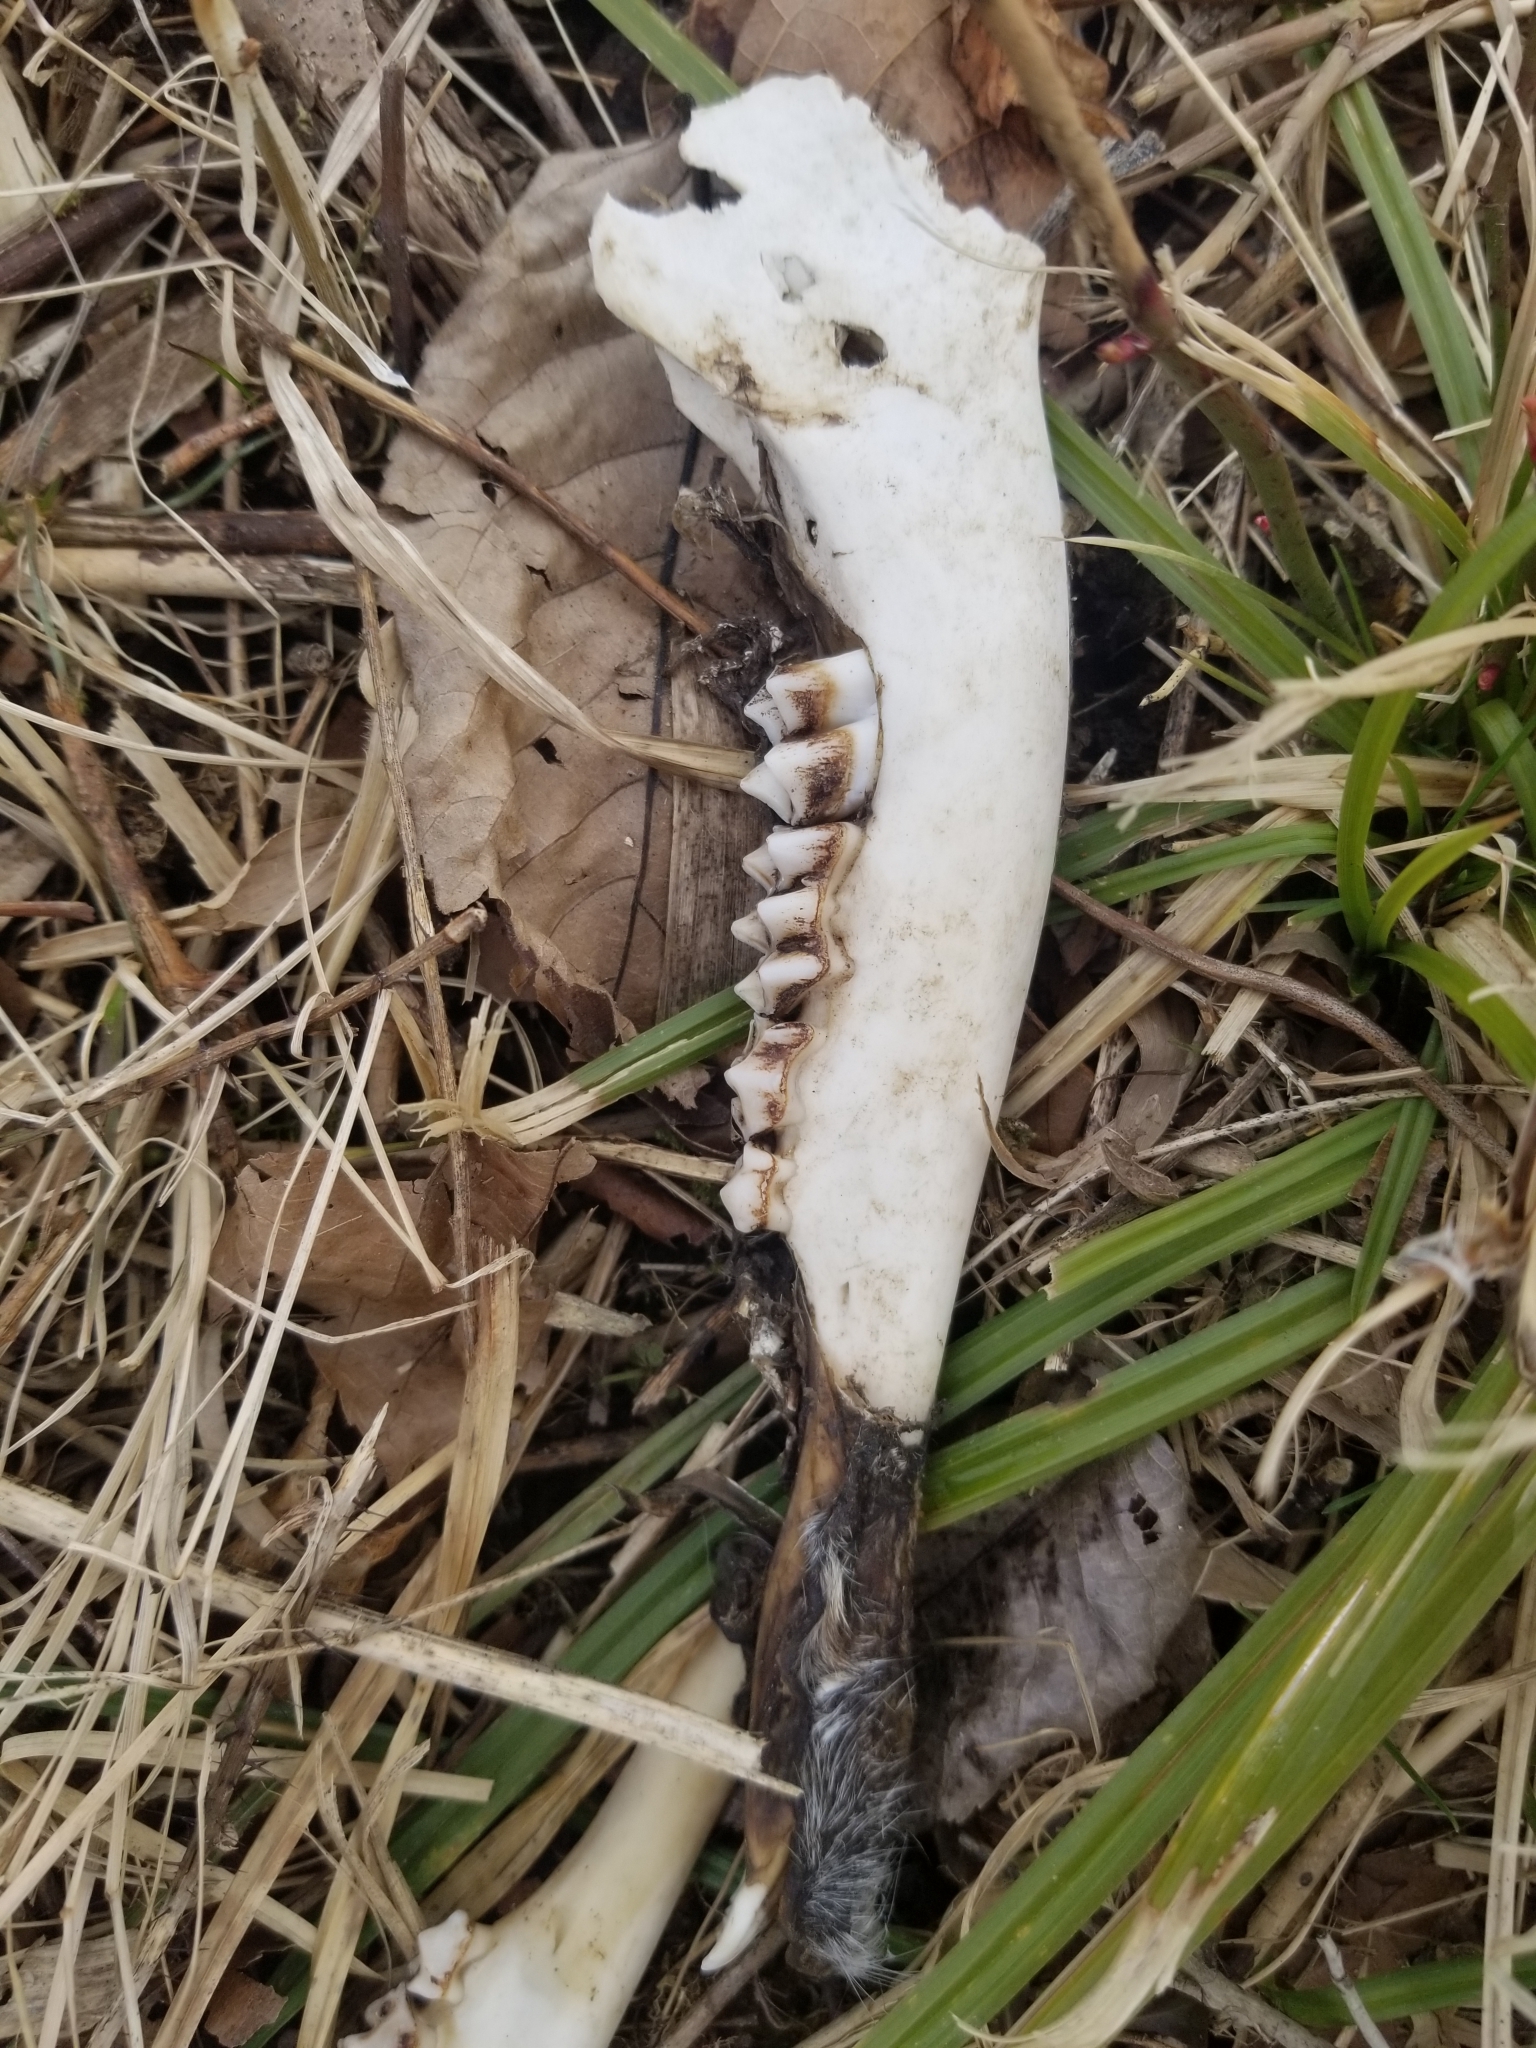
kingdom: Animalia
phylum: Chordata
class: Mammalia
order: Artiodactyla
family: Cervidae
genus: Odocoileus
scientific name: Odocoileus virginianus
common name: White-tailed deer
